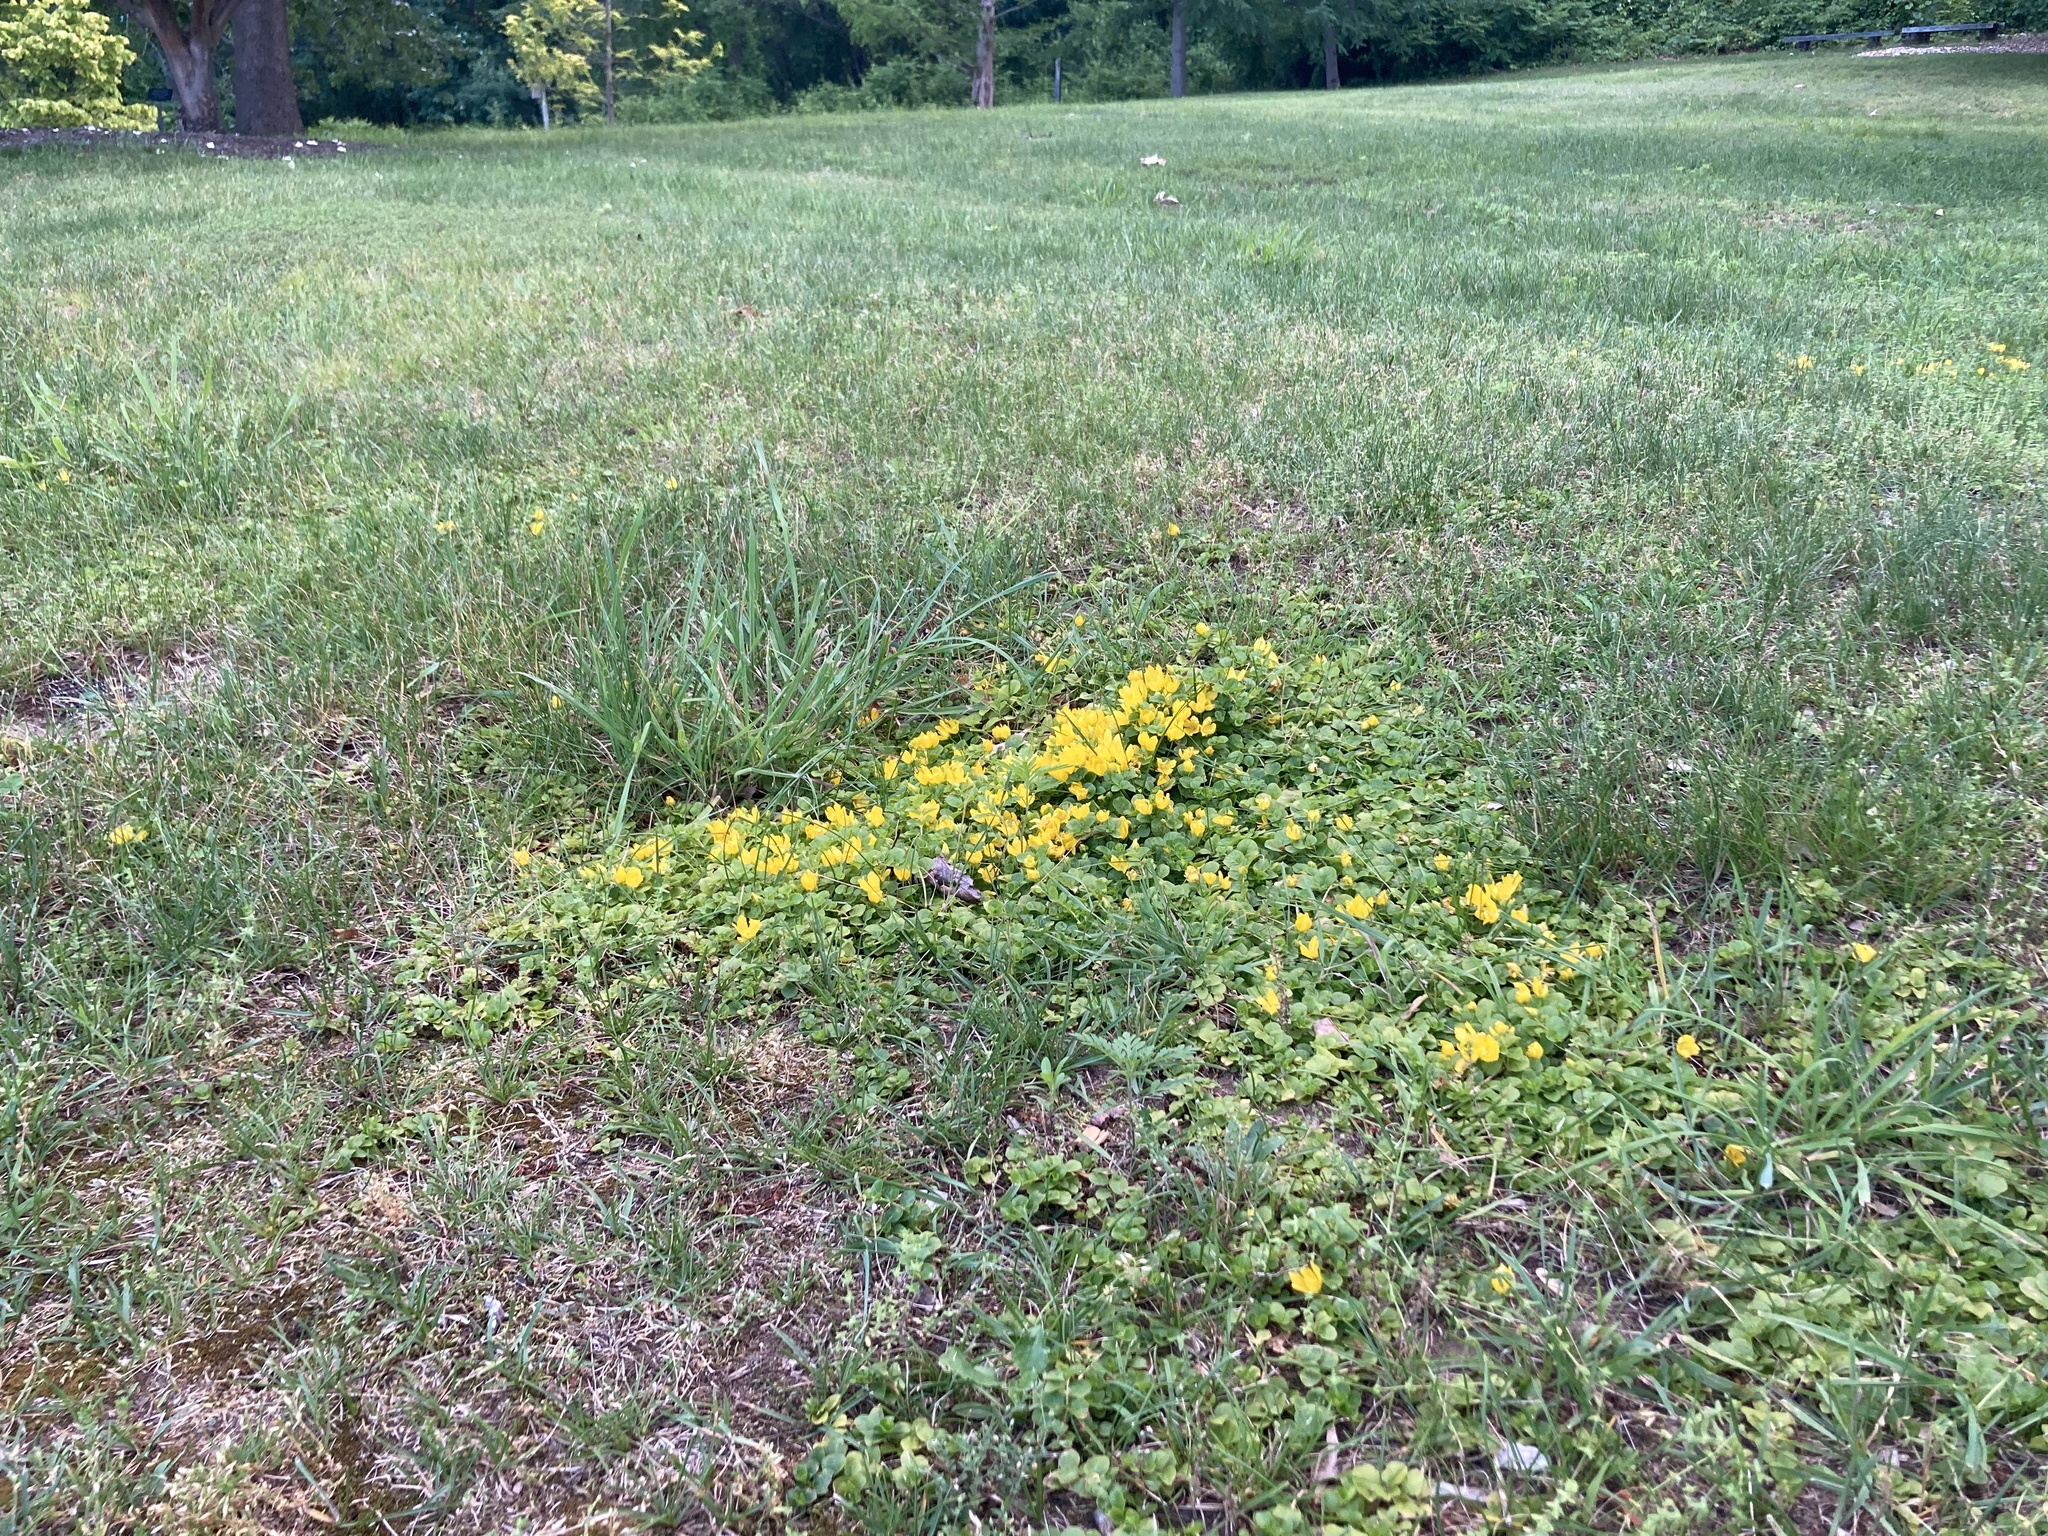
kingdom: Plantae
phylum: Tracheophyta
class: Magnoliopsida
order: Ericales
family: Primulaceae
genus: Lysimachia
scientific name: Lysimachia nummularia
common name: Moneywort
